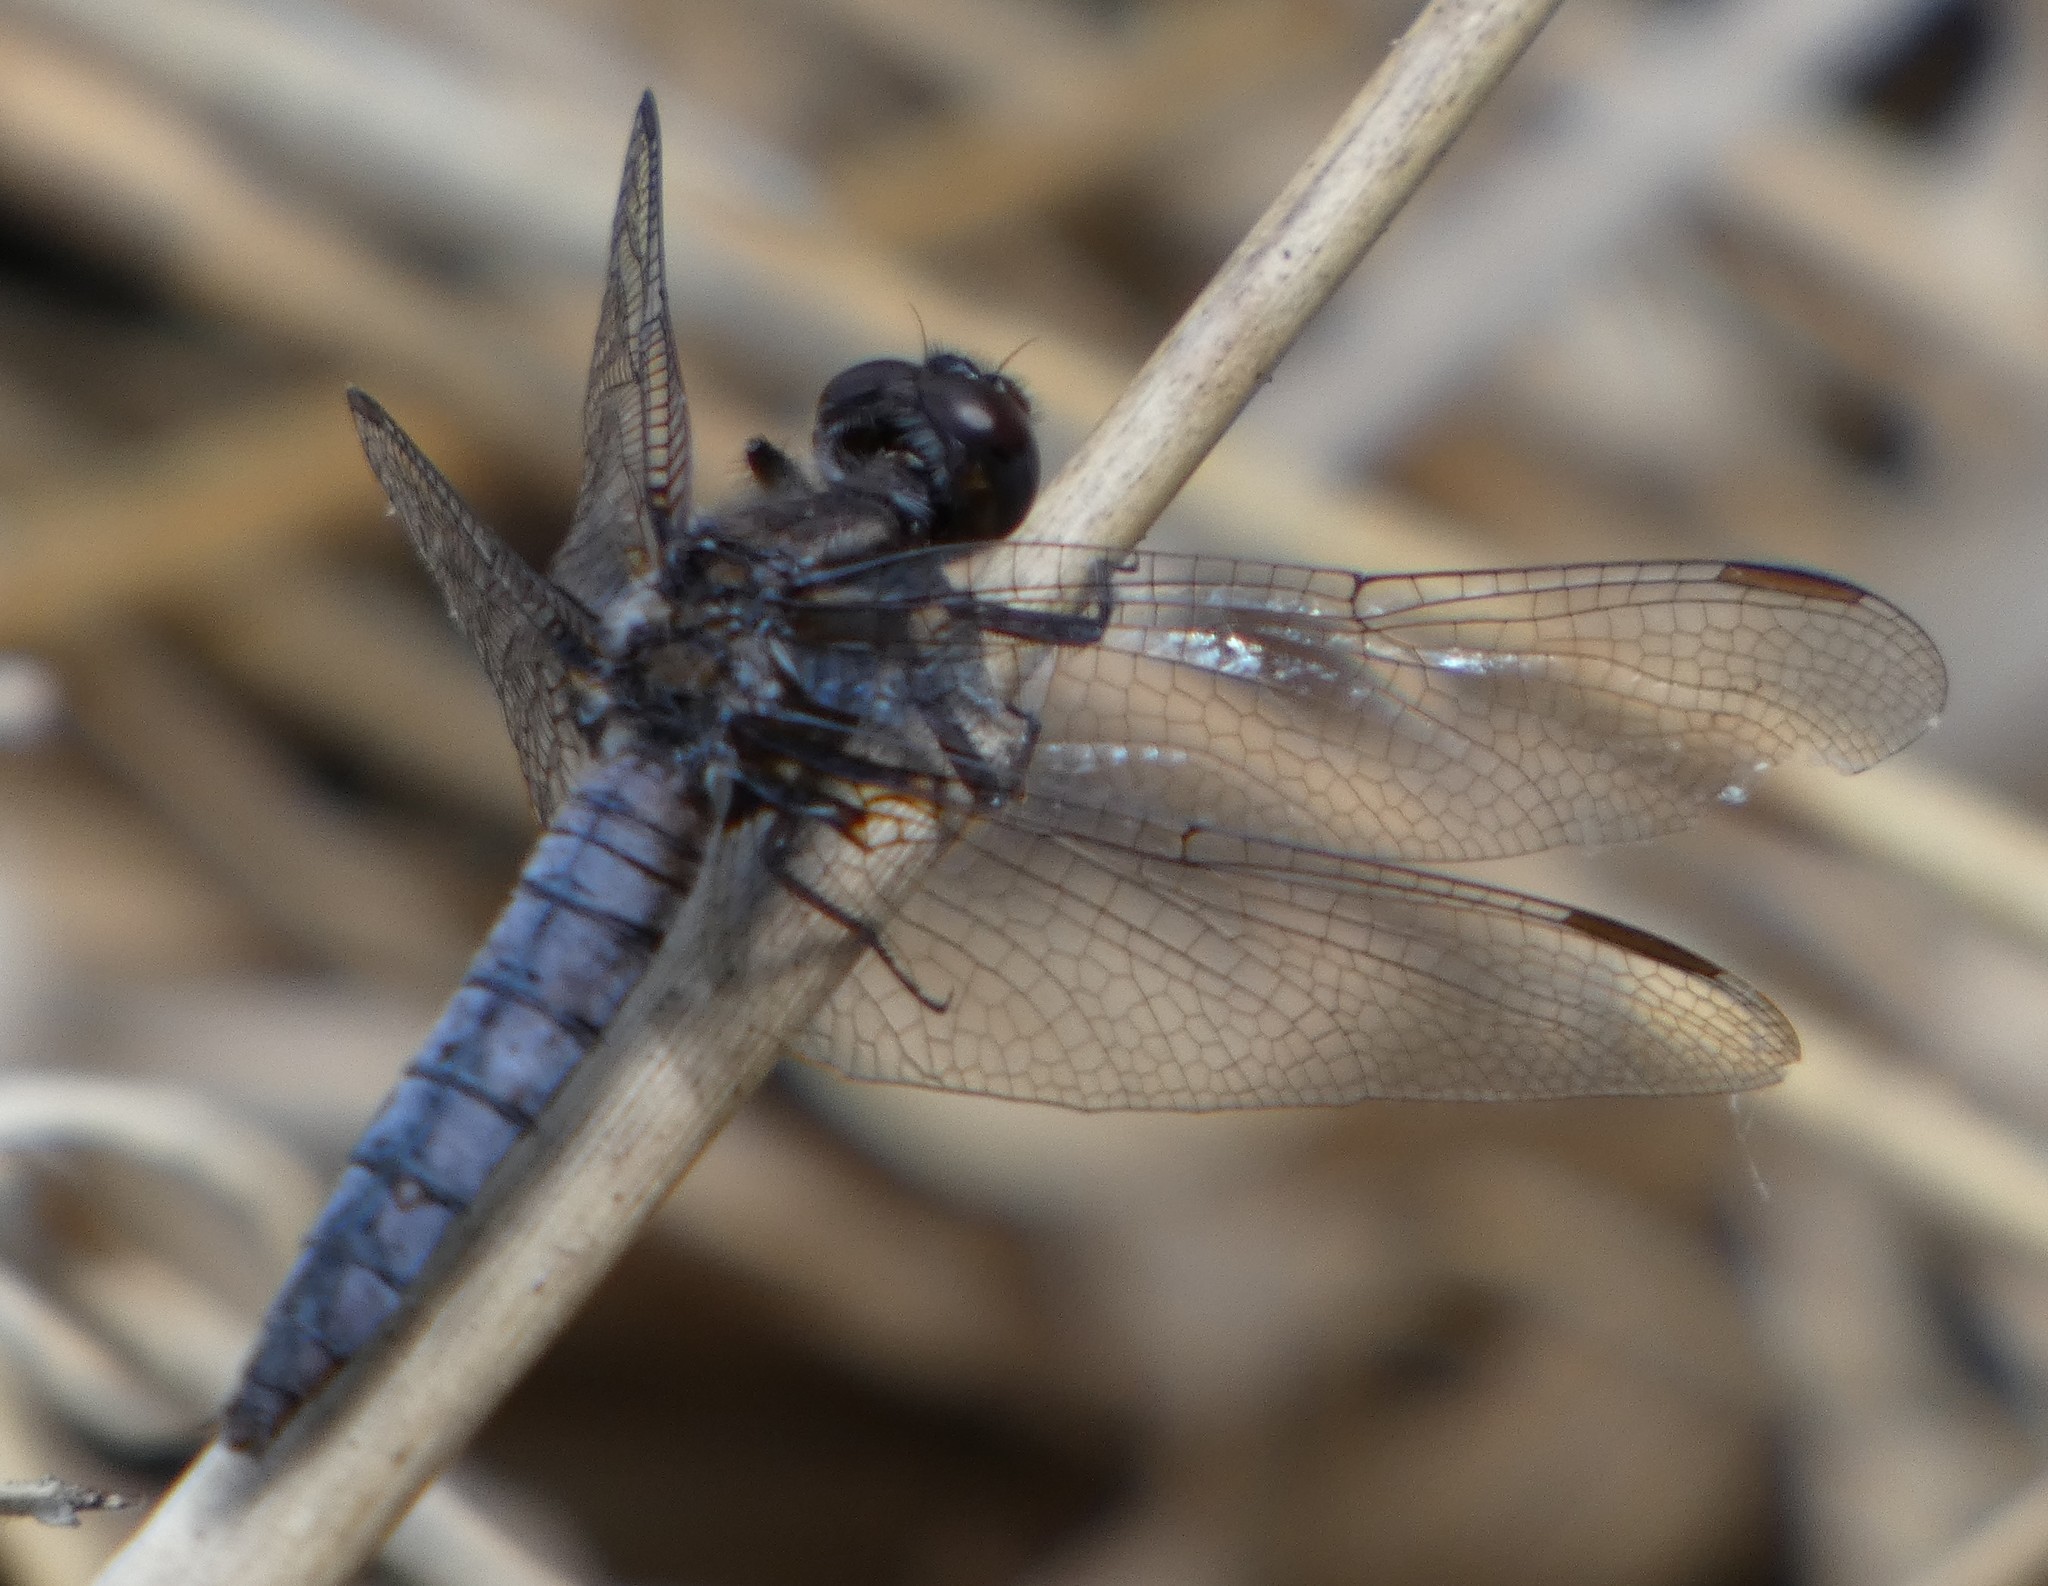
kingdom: Animalia
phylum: Arthropoda
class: Insecta
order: Odonata
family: Libellulidae
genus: Ladona
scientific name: Ladona deplanata
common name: Blue corporal
